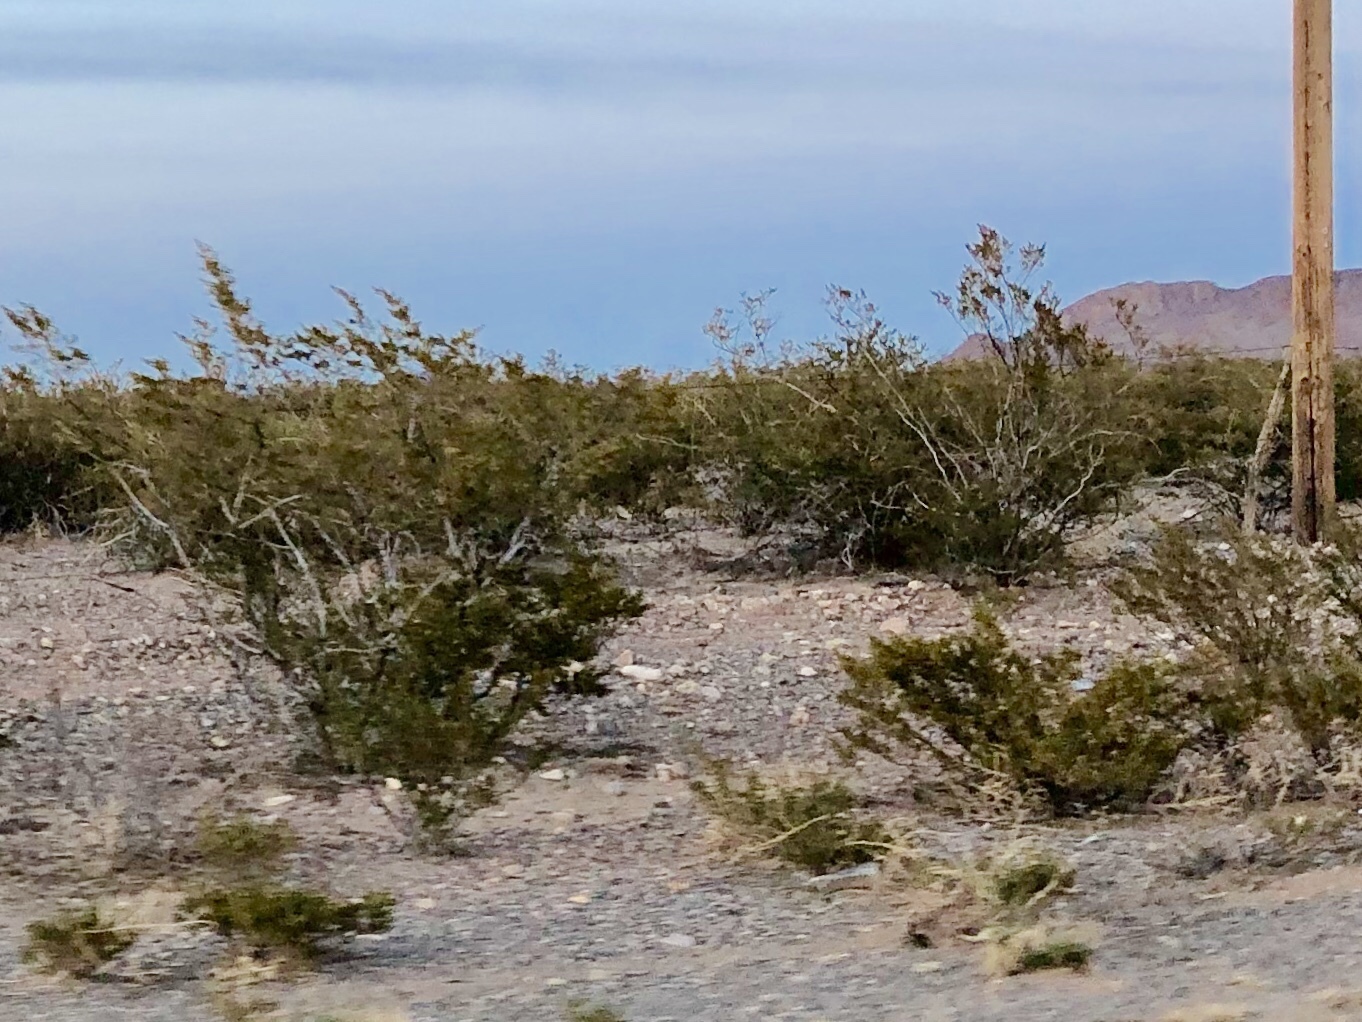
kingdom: Plantae
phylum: Tracheophyta
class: Magnoliopsida
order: Zygophyllales
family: Zygophyllaceae
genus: Larrea
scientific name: Larrea tridentata
